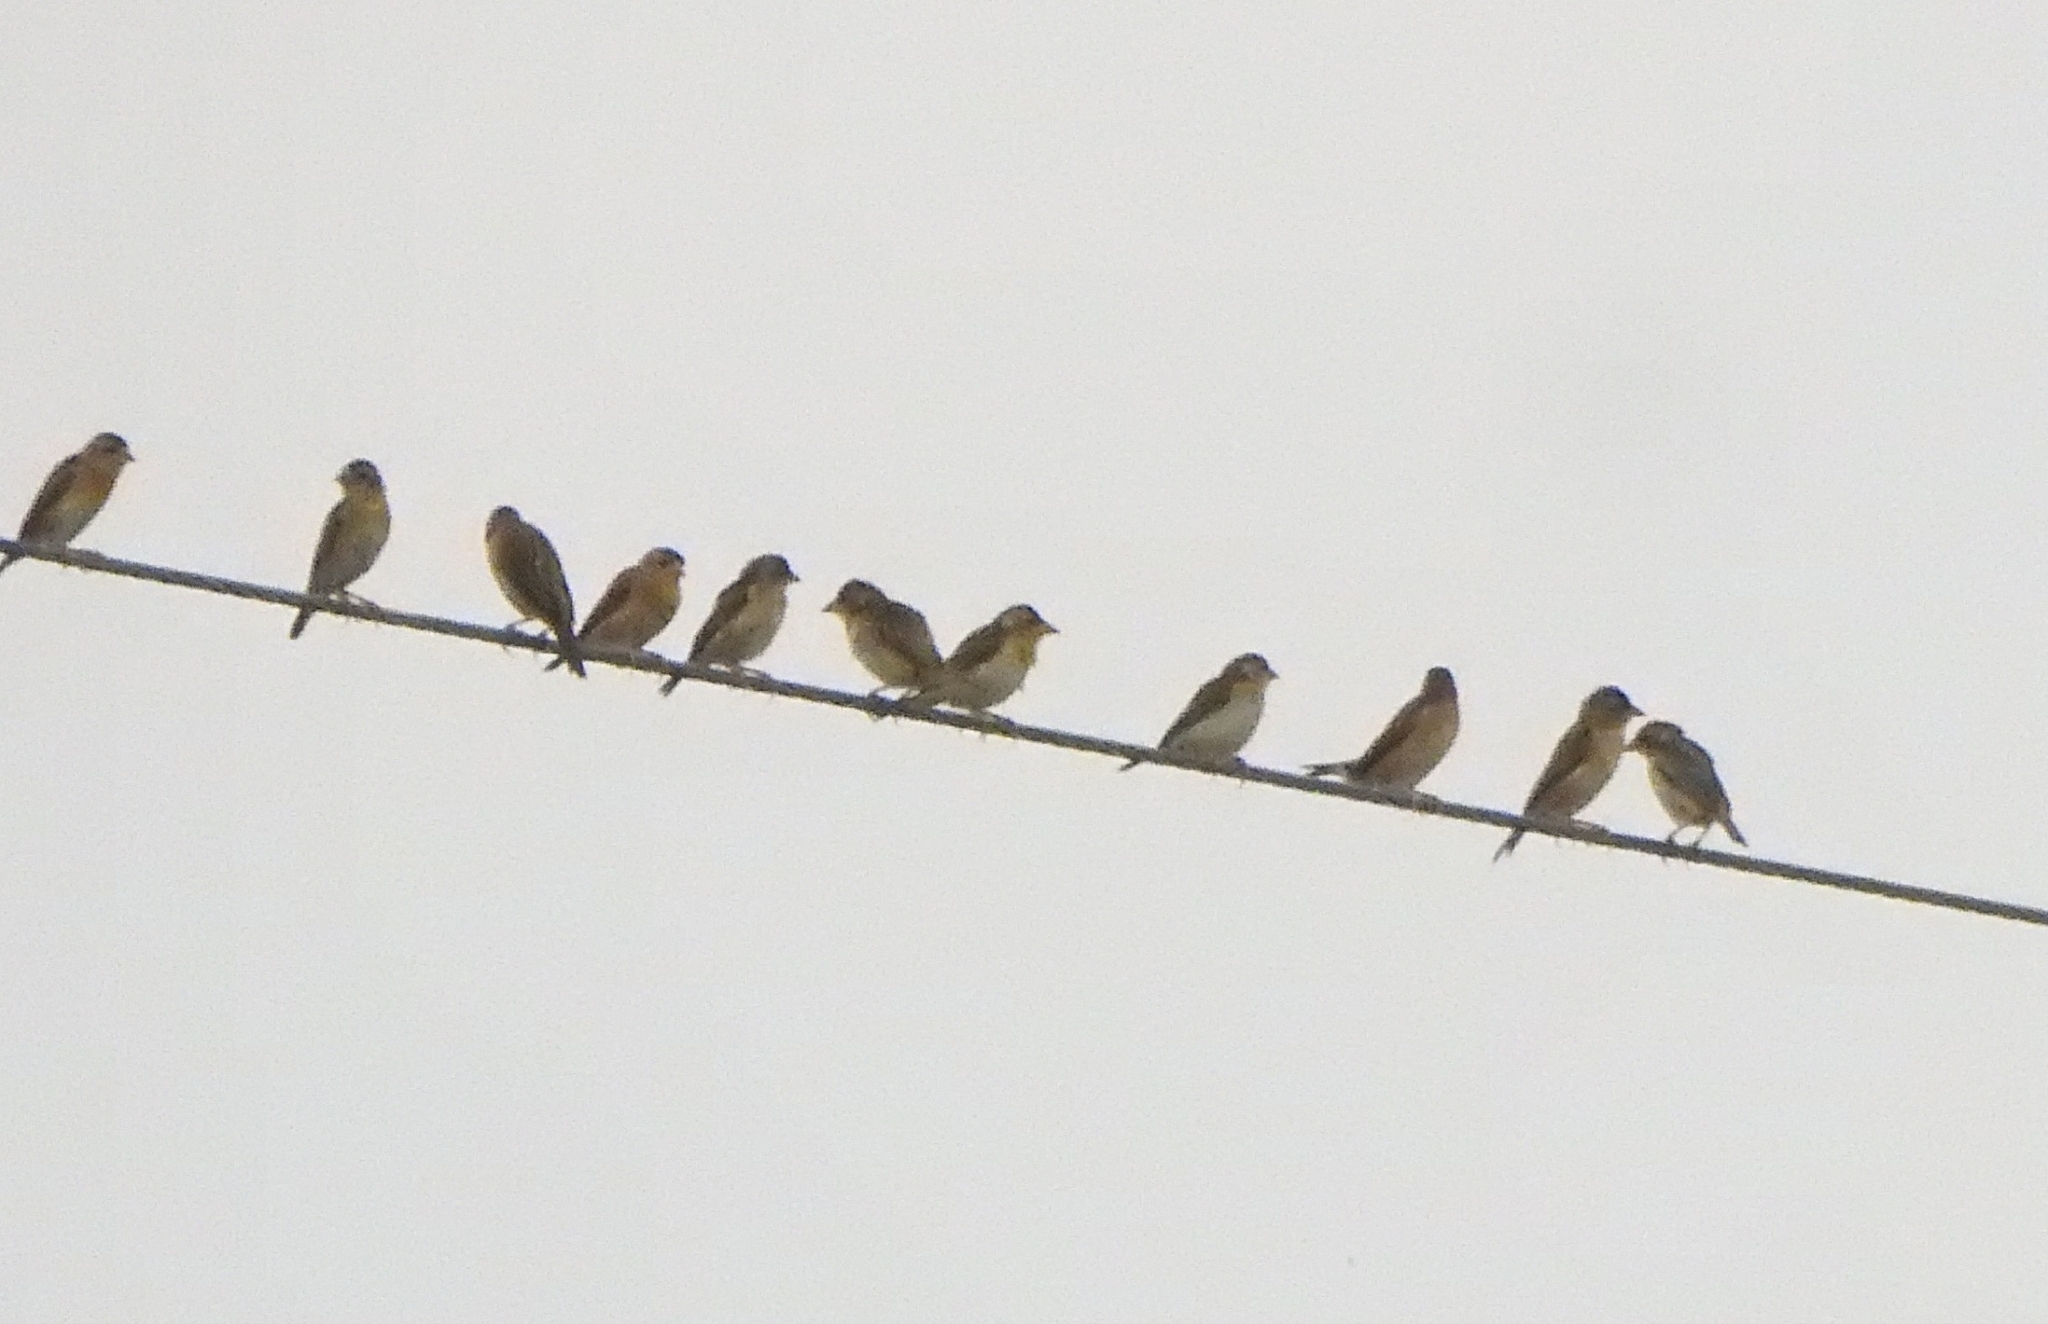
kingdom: Animalia
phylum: Chordata
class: Aves
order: Passeriformes
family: Ploceidae
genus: Ploceus
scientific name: Ploceus philippinus
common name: Baya weaver
